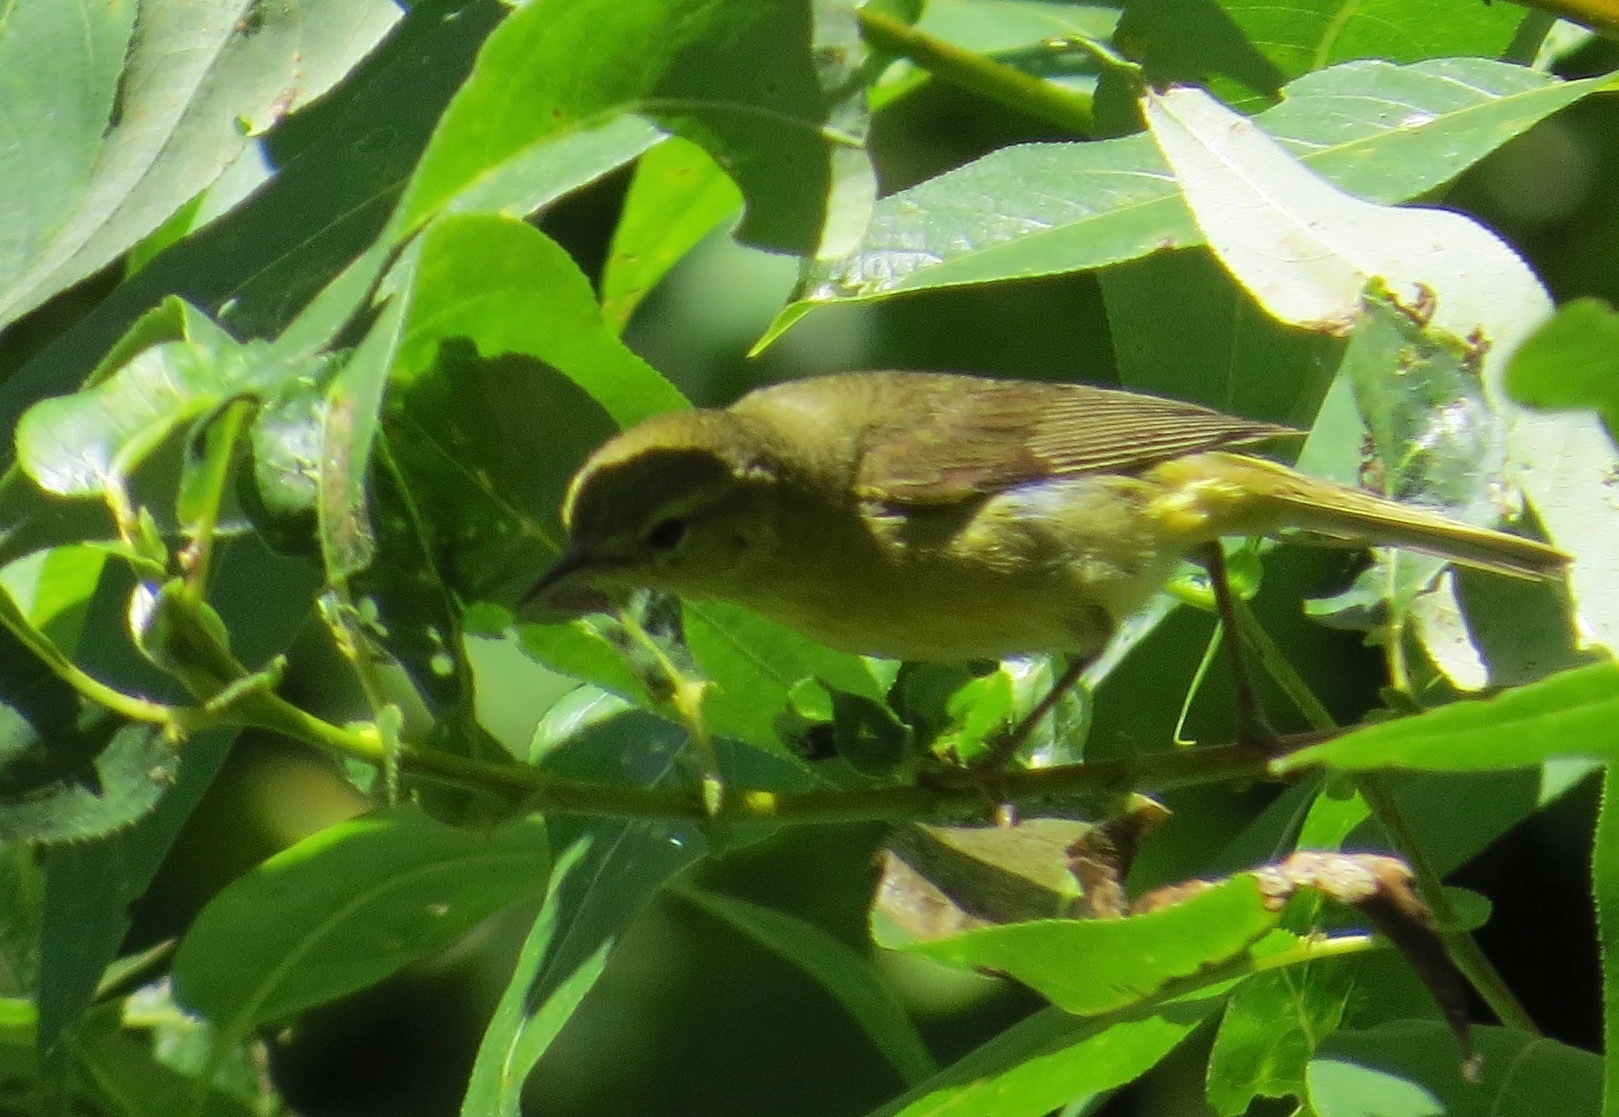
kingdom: Animalia
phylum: Chordata
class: Aves
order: Passeriformes
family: Parulidae
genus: Leiothlypis
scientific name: Leiothlypis celata
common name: Orange-crowned warbler
